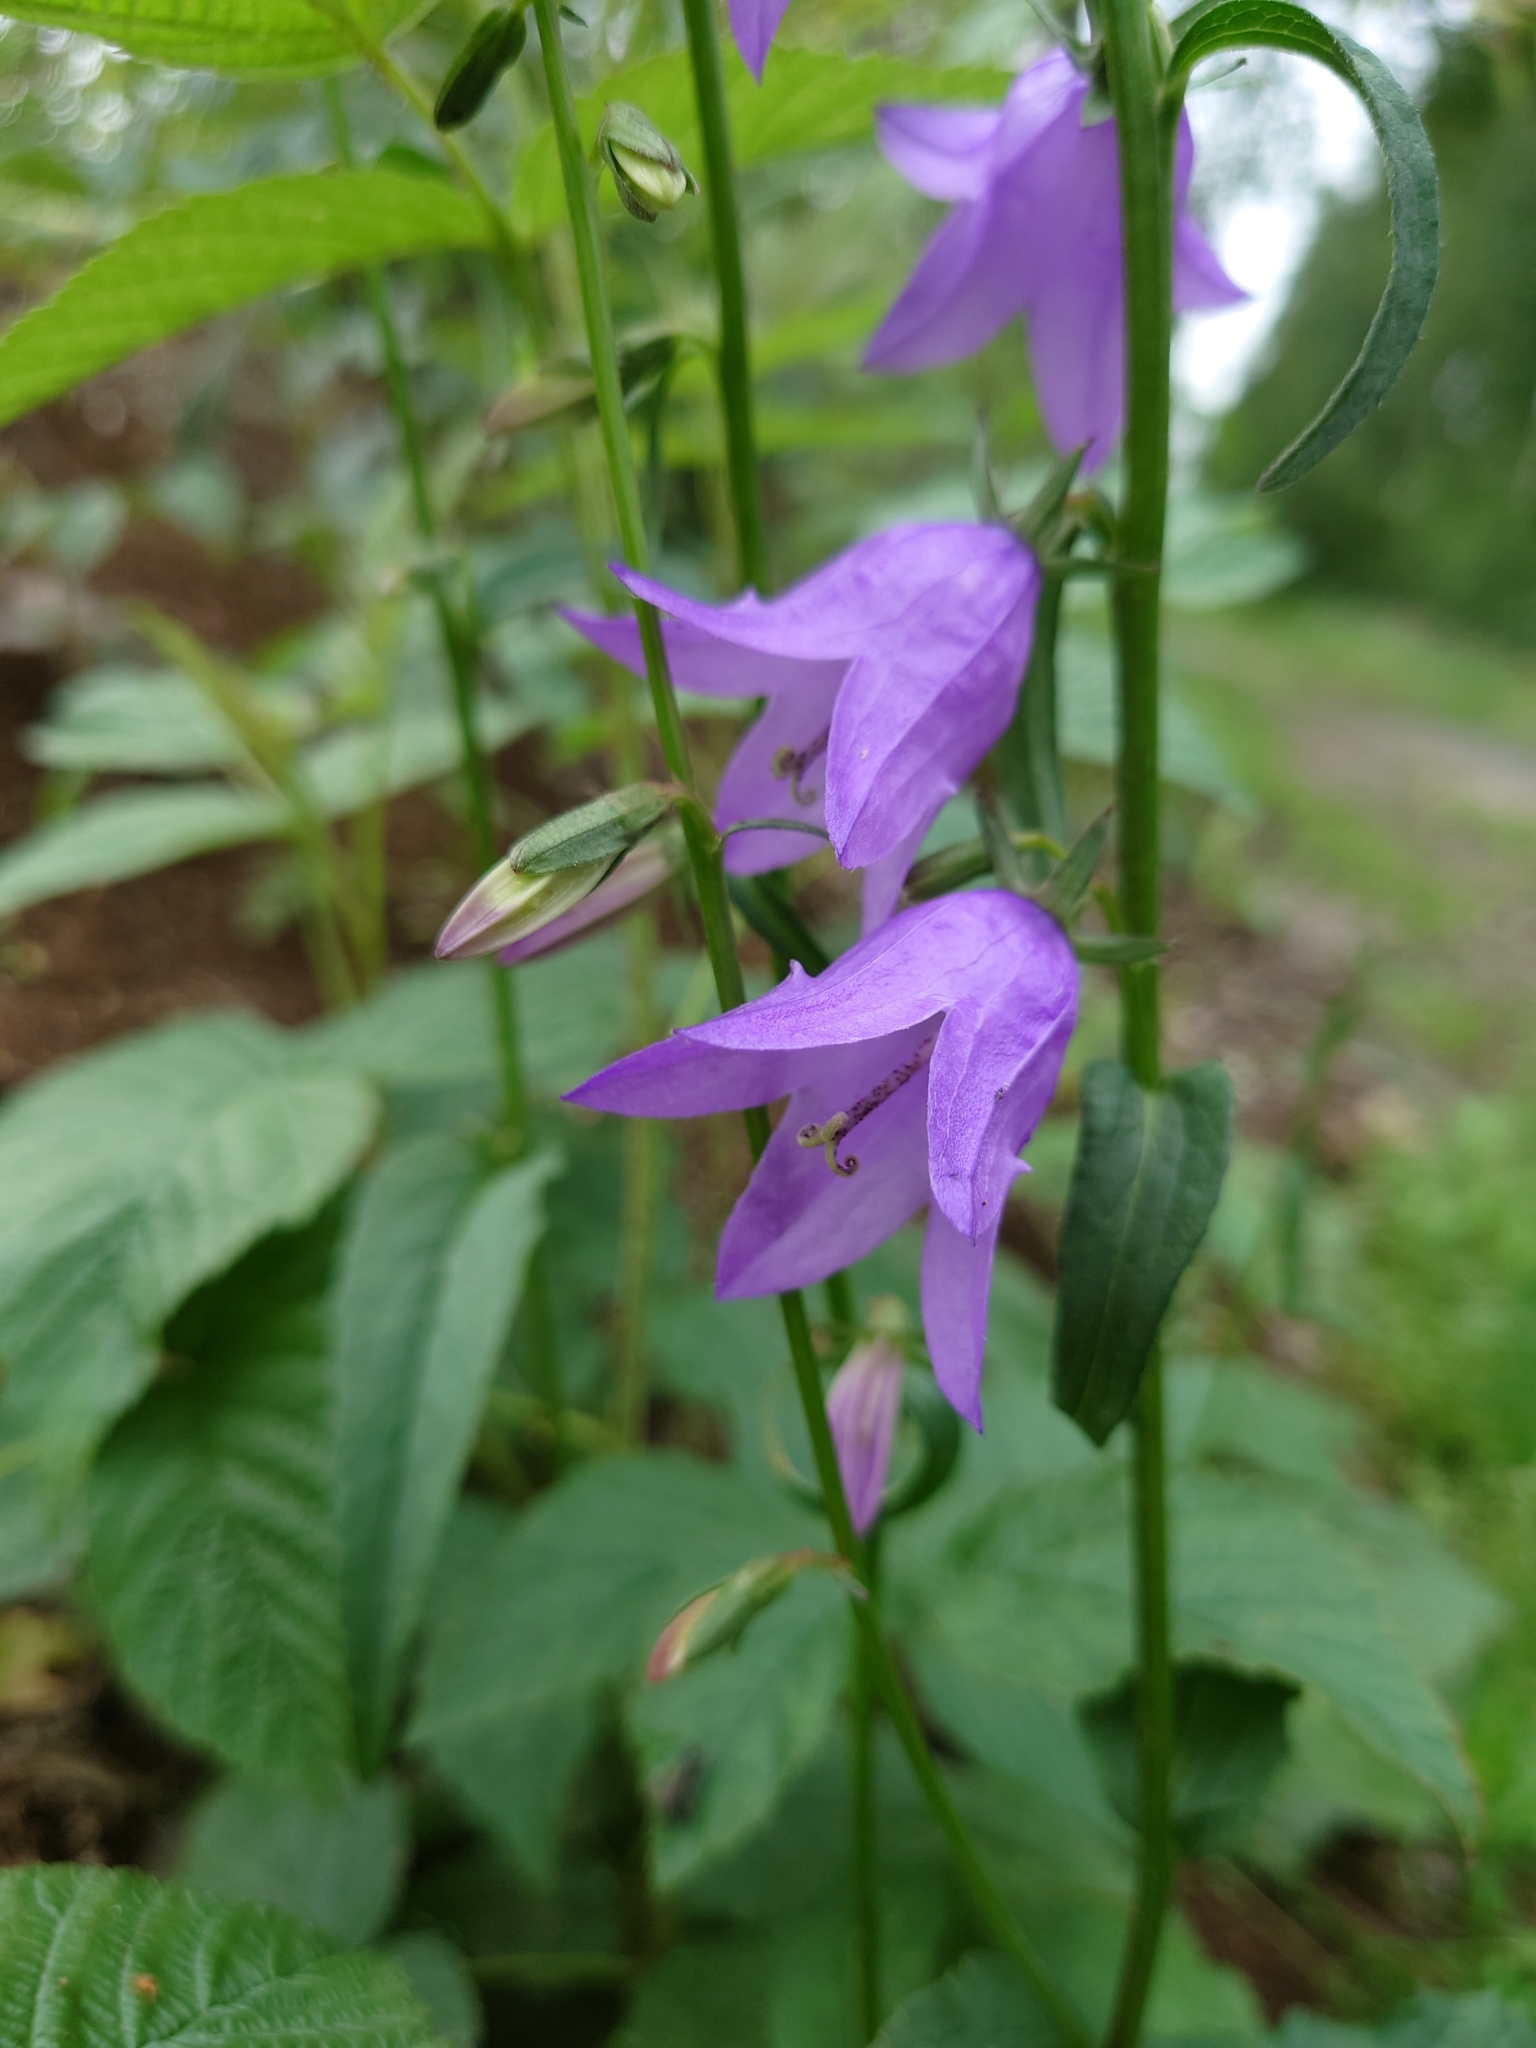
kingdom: Plantae
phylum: Tracheophyta
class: Magnoliopsida
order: Asterales
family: Campanulaceae
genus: Campanula
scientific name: Campanula rapunculoides
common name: Creeping bellflower
